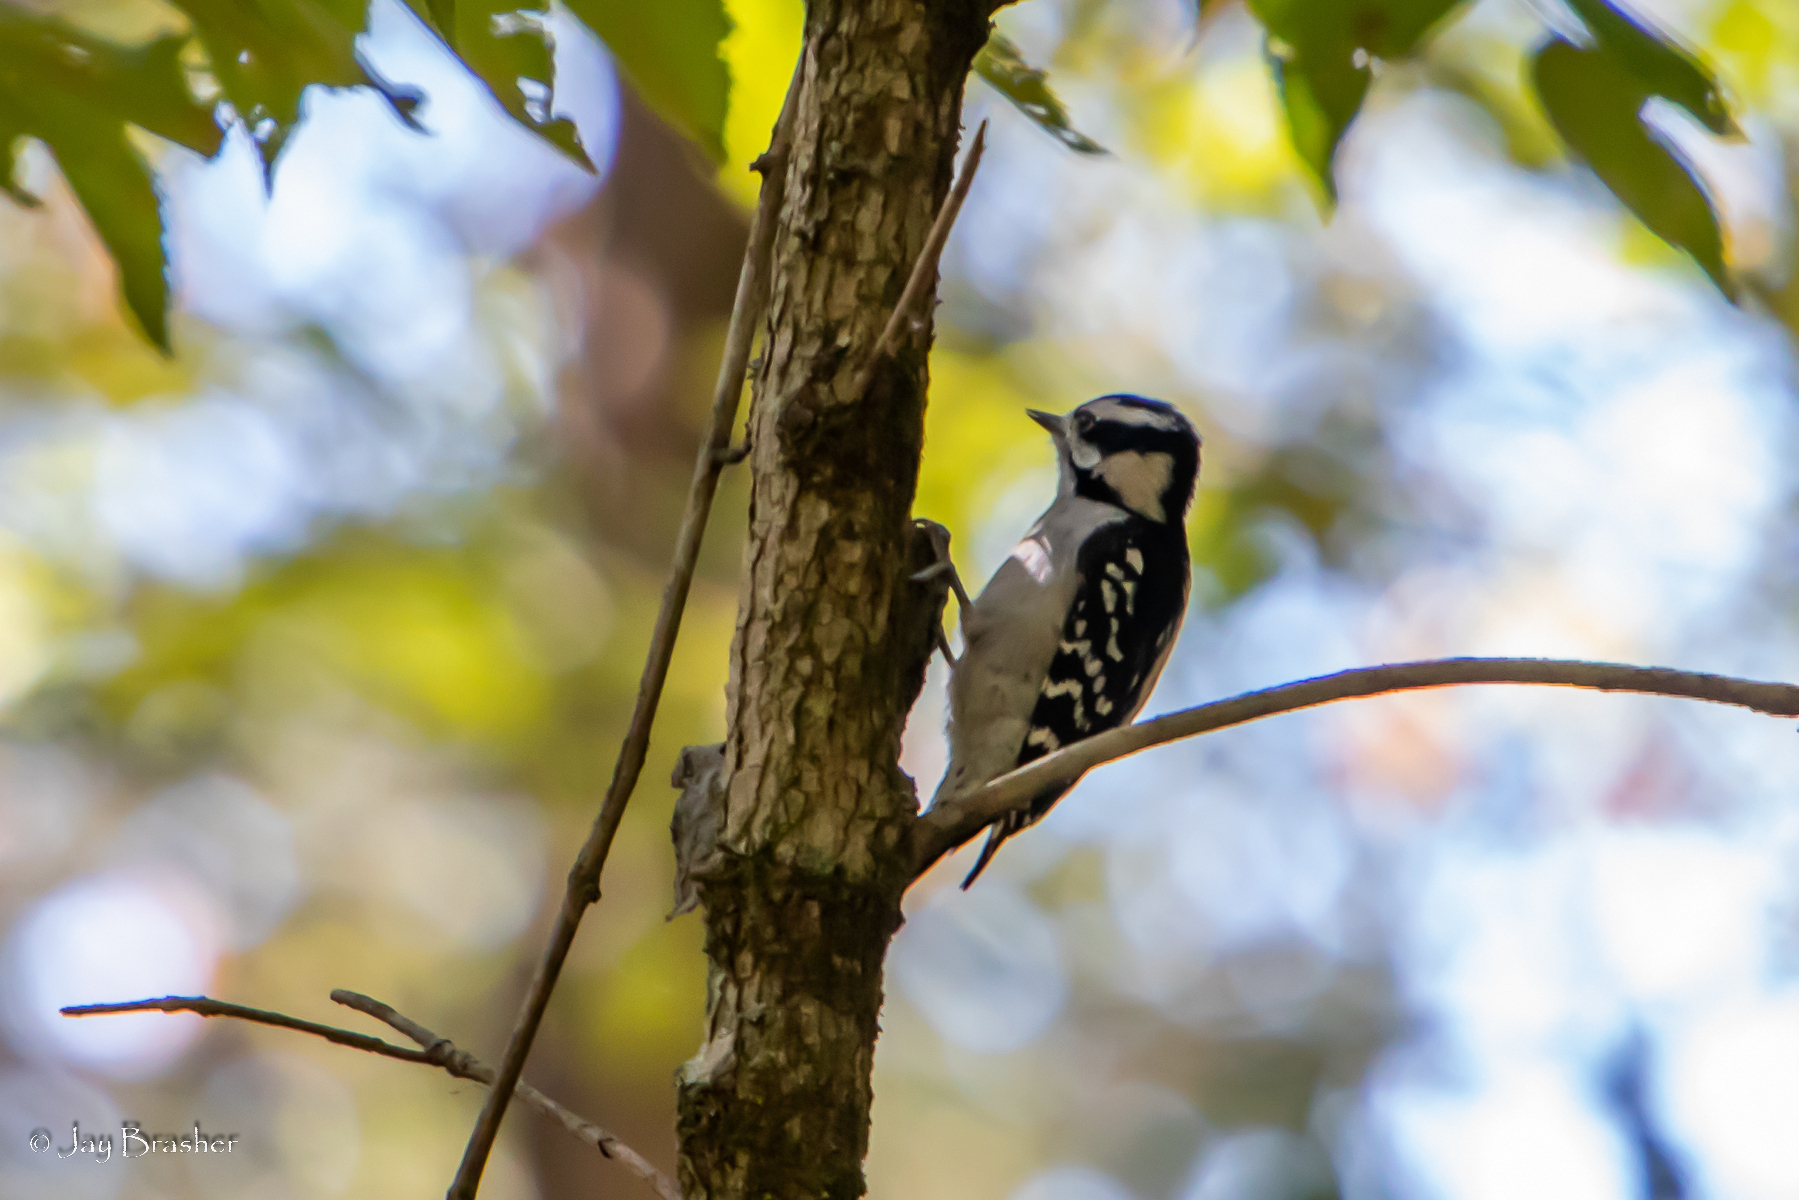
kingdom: Animalia
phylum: Chordata
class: Aves
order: Piciformes
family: Picidae
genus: Dryobates
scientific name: Dryobates pubescens
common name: Downy woodpecker
